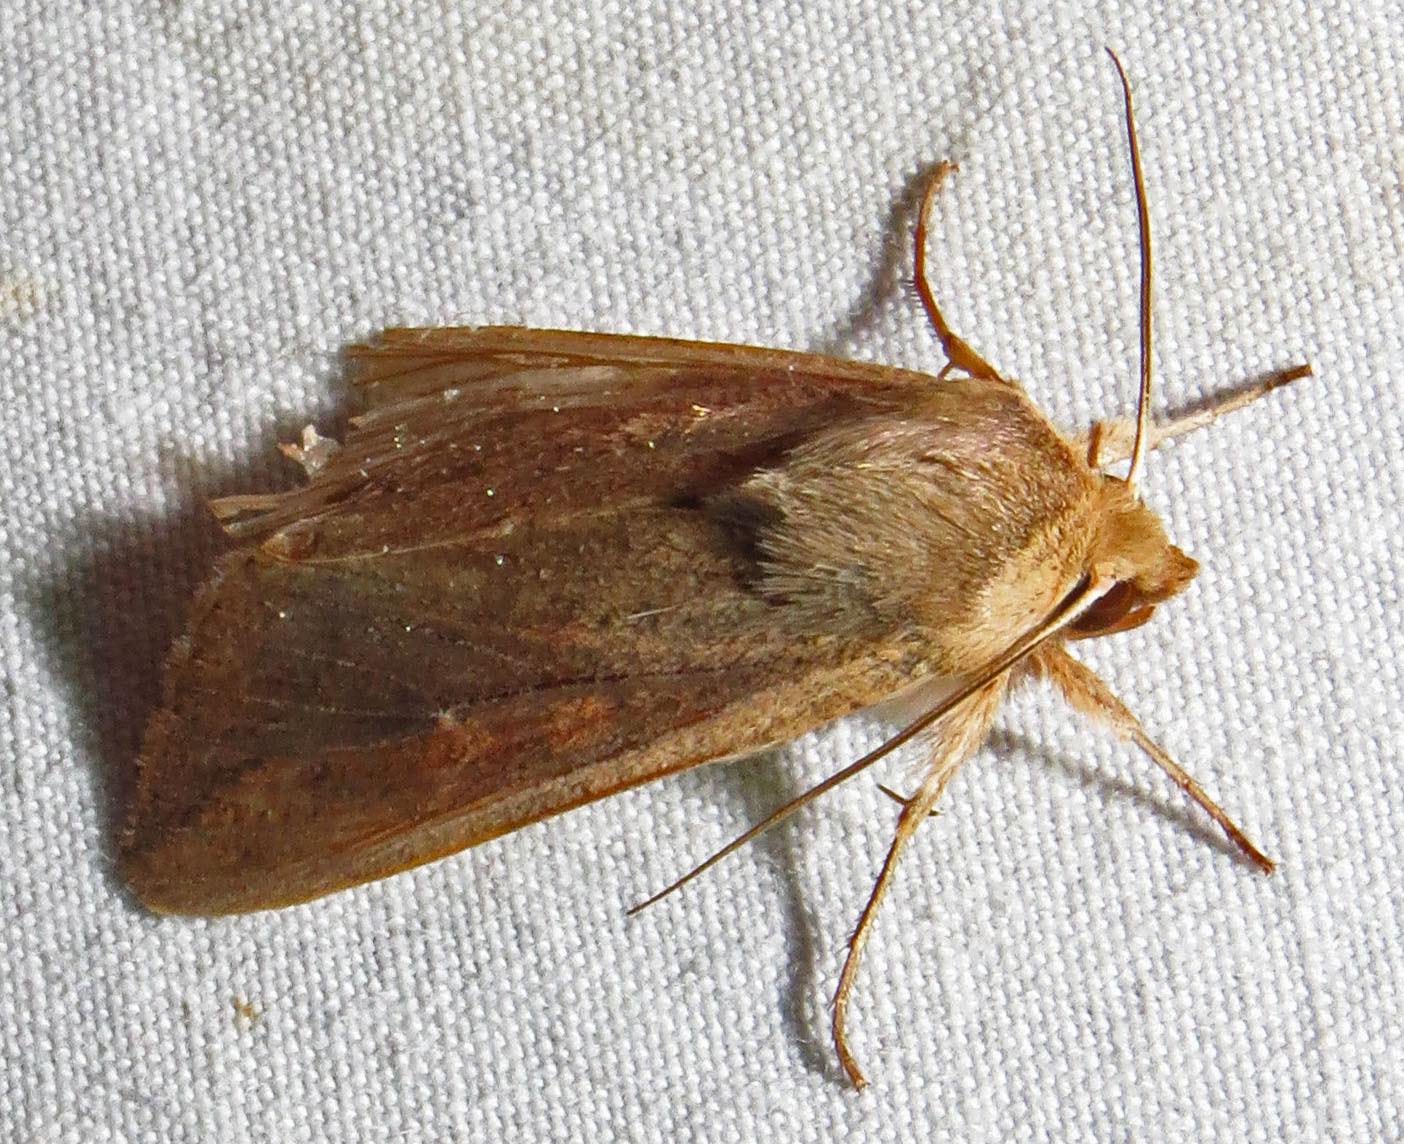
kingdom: Animalia
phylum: Arthropoda
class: Insecta
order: Lepidoptera
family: Noctuidae
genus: Mythimna
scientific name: Mythimna unipuncta
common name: White-speck
